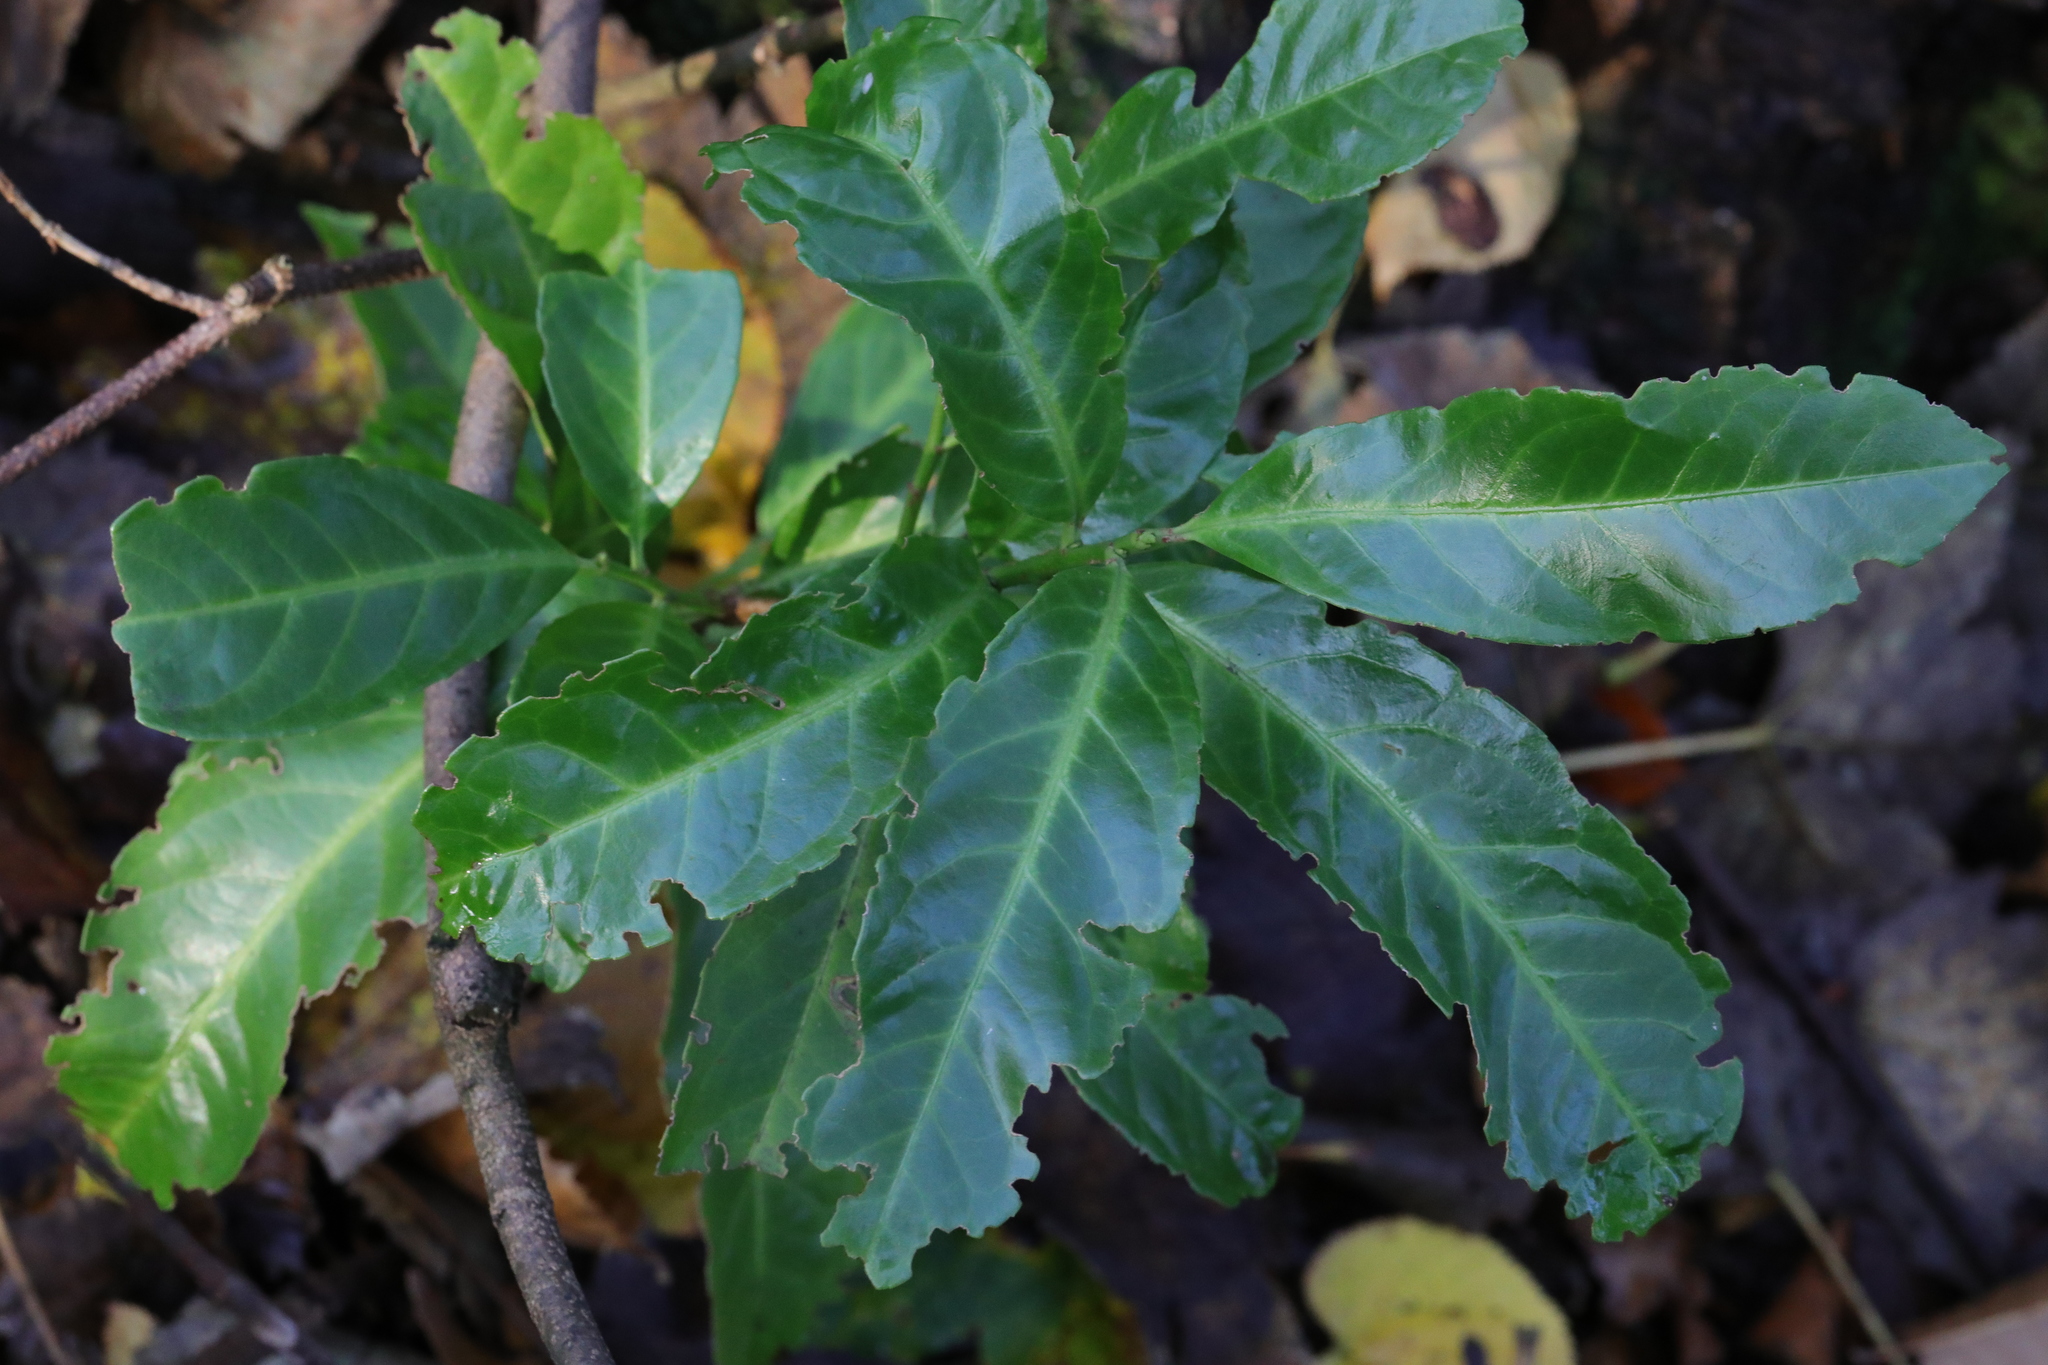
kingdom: Plantae
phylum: Tracheophyta
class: Magnoliopsida
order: Rosales
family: Rosaceae
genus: Prunus
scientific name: Prunus laurocerasus
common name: Cherry laurel
